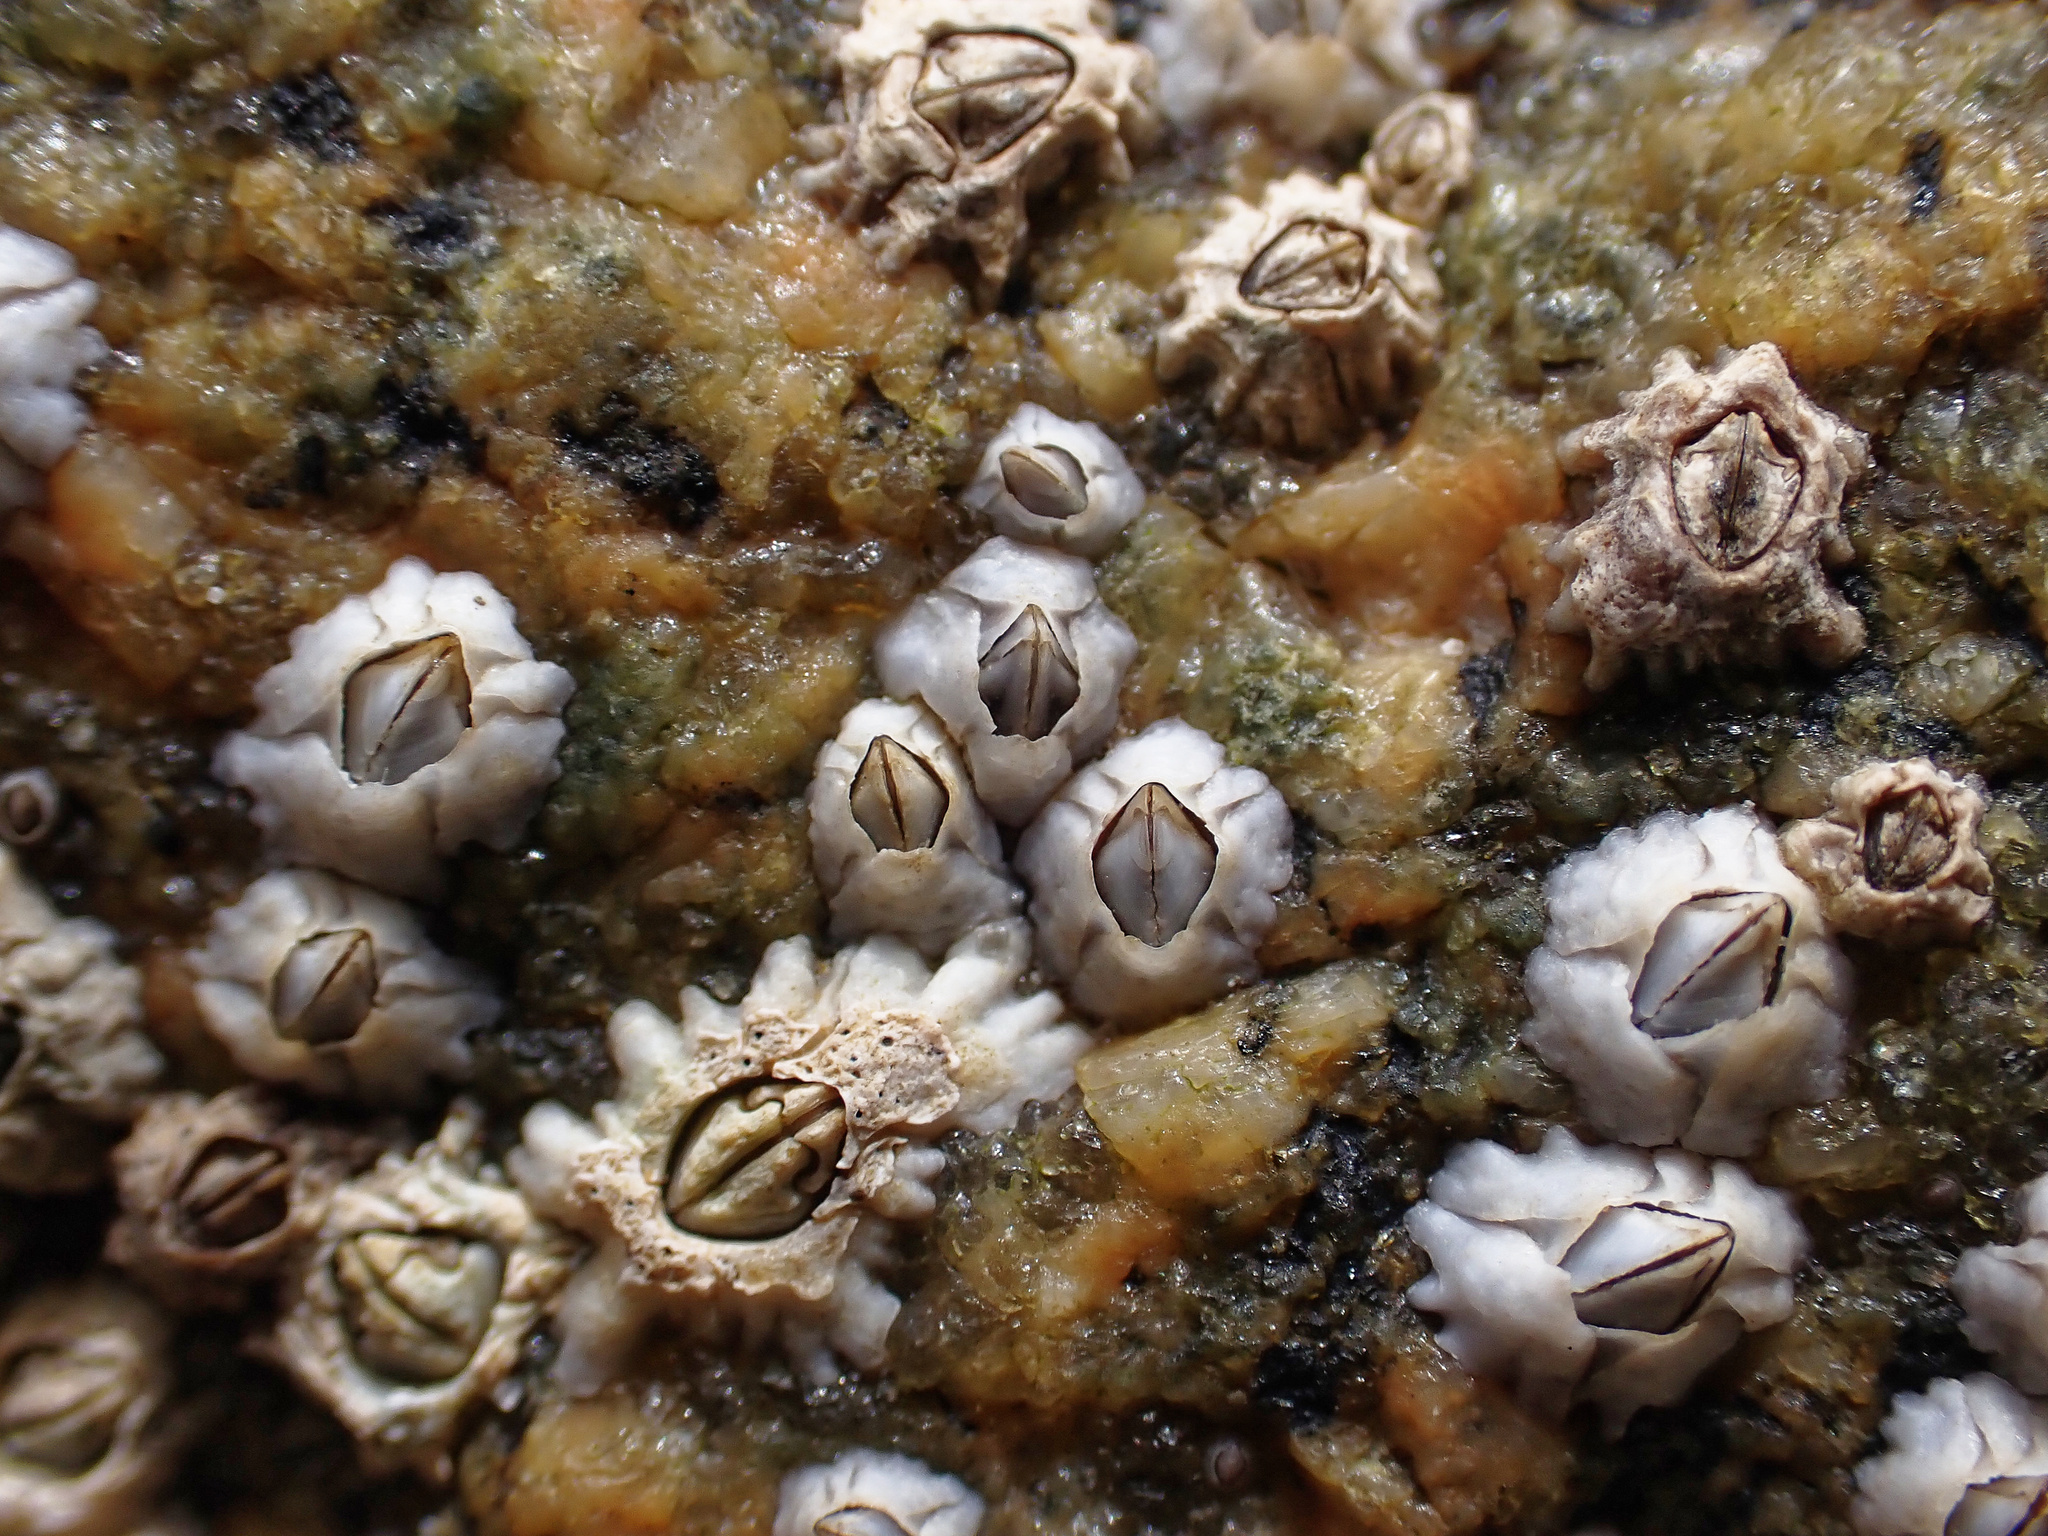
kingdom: Animalia
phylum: Arthropoda
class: Maxillopoda
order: Sessilia
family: Archaeobalanidae
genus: Semibalanus
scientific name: Semibalanus balanoides
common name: Acorn barnacle
